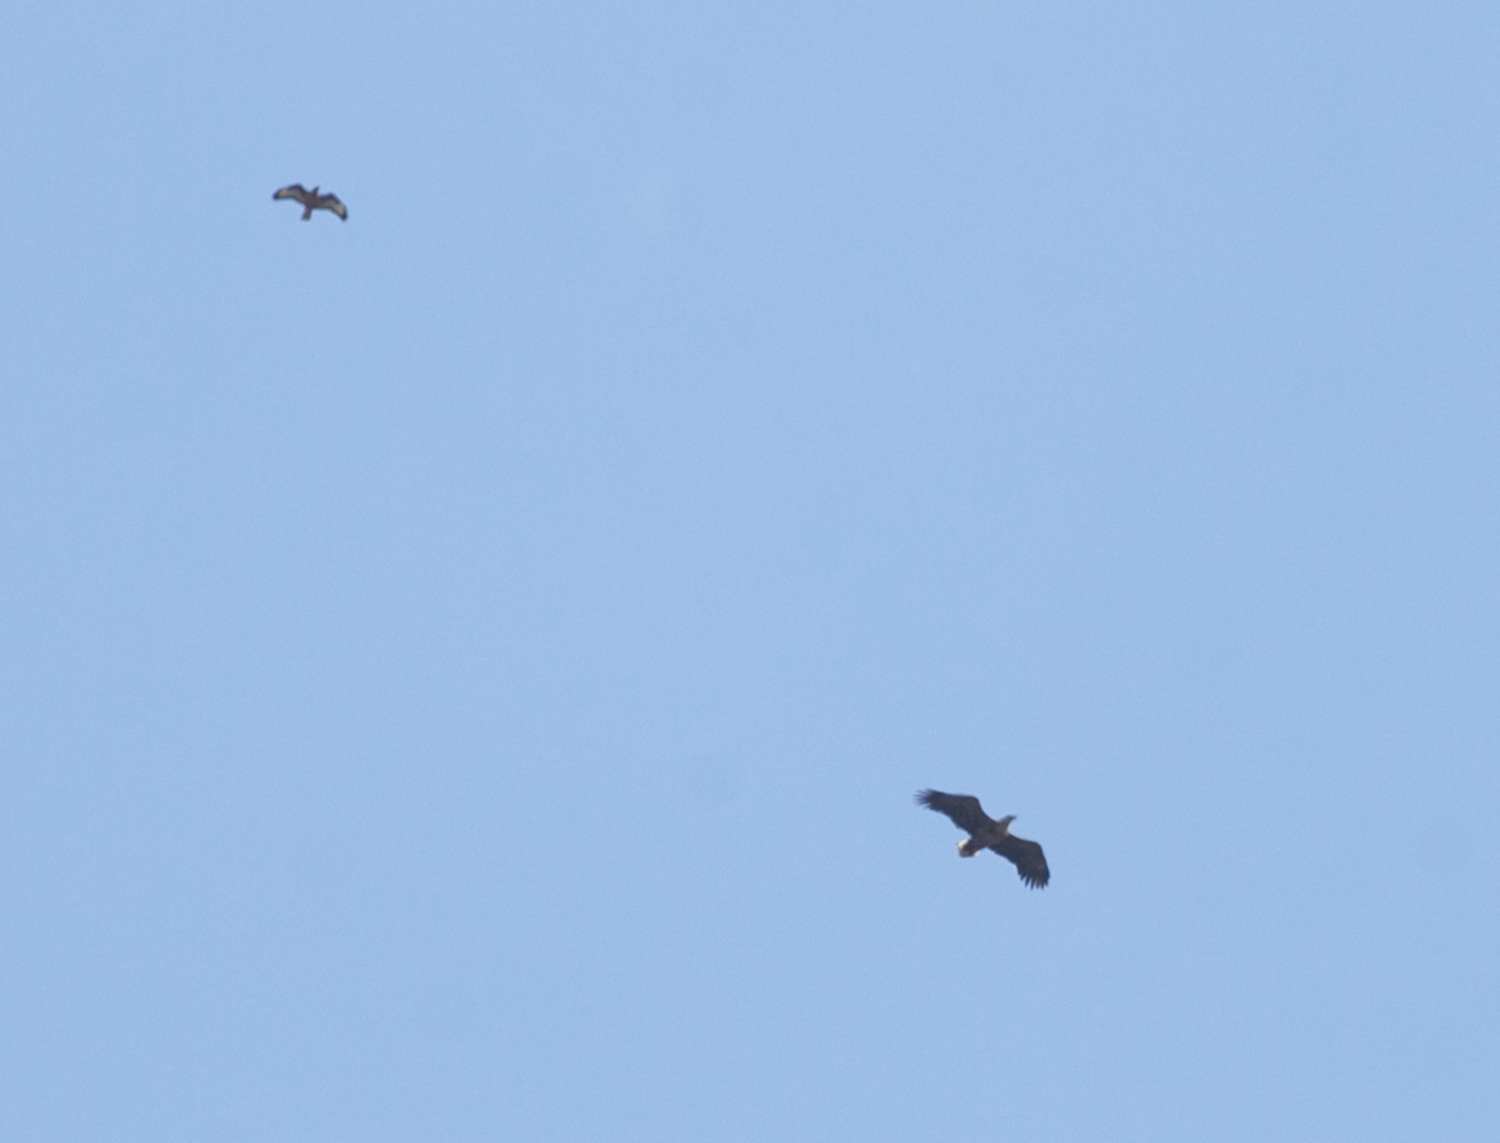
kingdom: Animalia
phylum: Chordata
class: Aves
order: Accipitriformes
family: Accipitridae
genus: Buteo
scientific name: Buteo buteo
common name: Common buzzard
